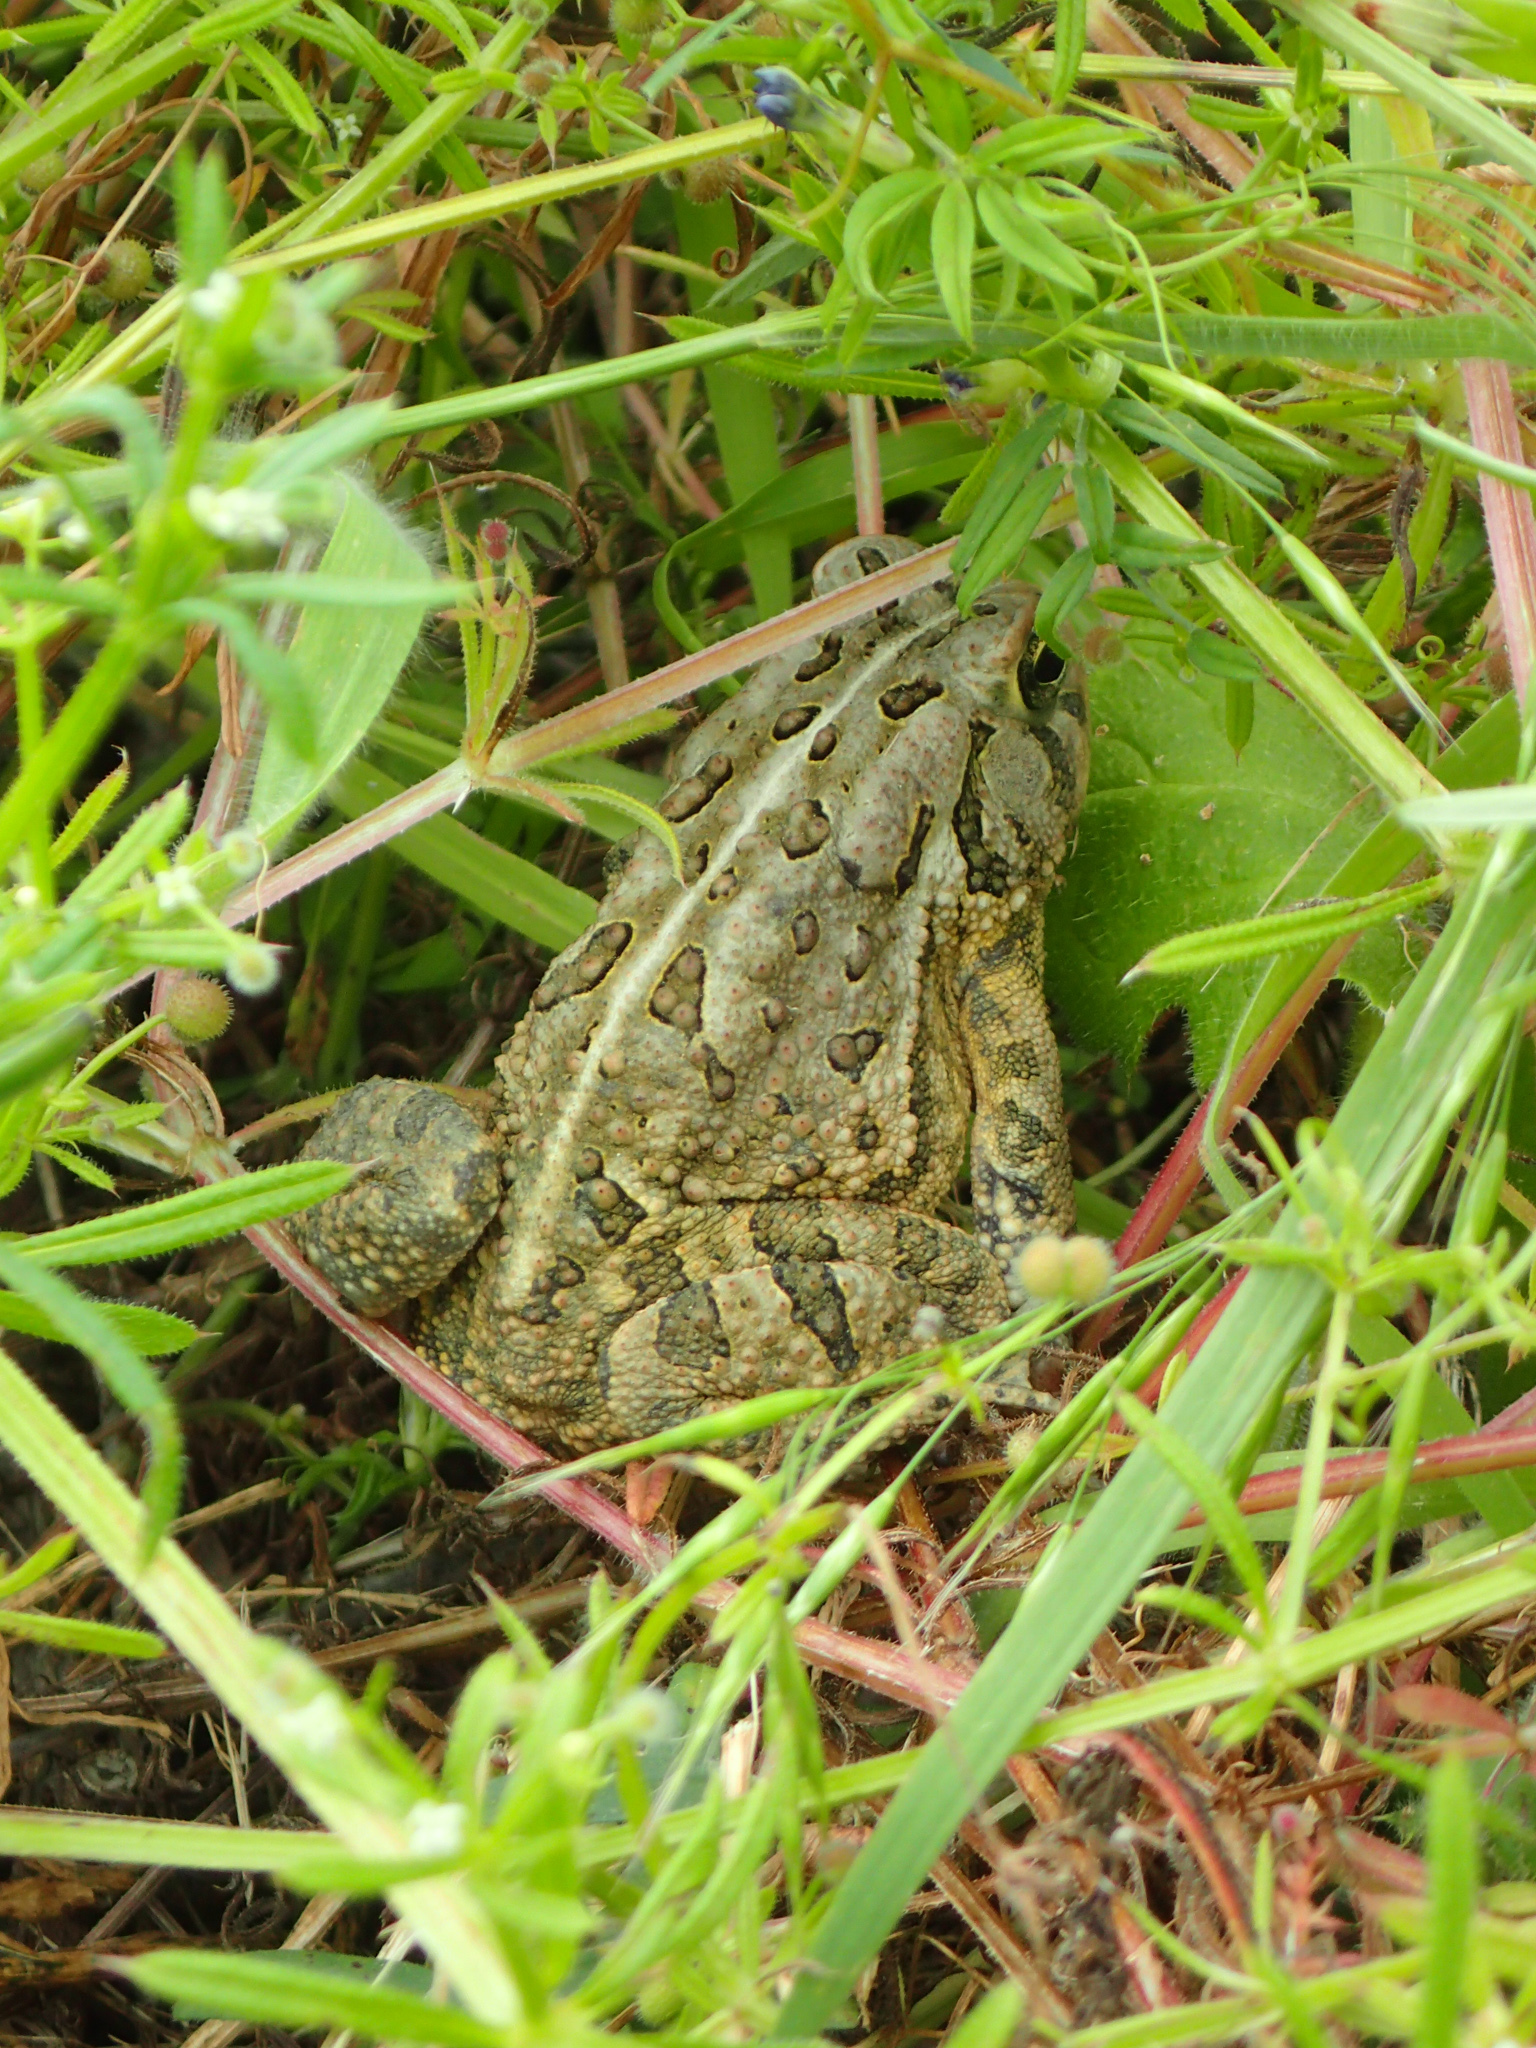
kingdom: Animalia
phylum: Chordata
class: Amphibia
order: Anura
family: Bufonidae
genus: Anaxyrus
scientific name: Anaxyrus fowleri
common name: Fowler's toad
